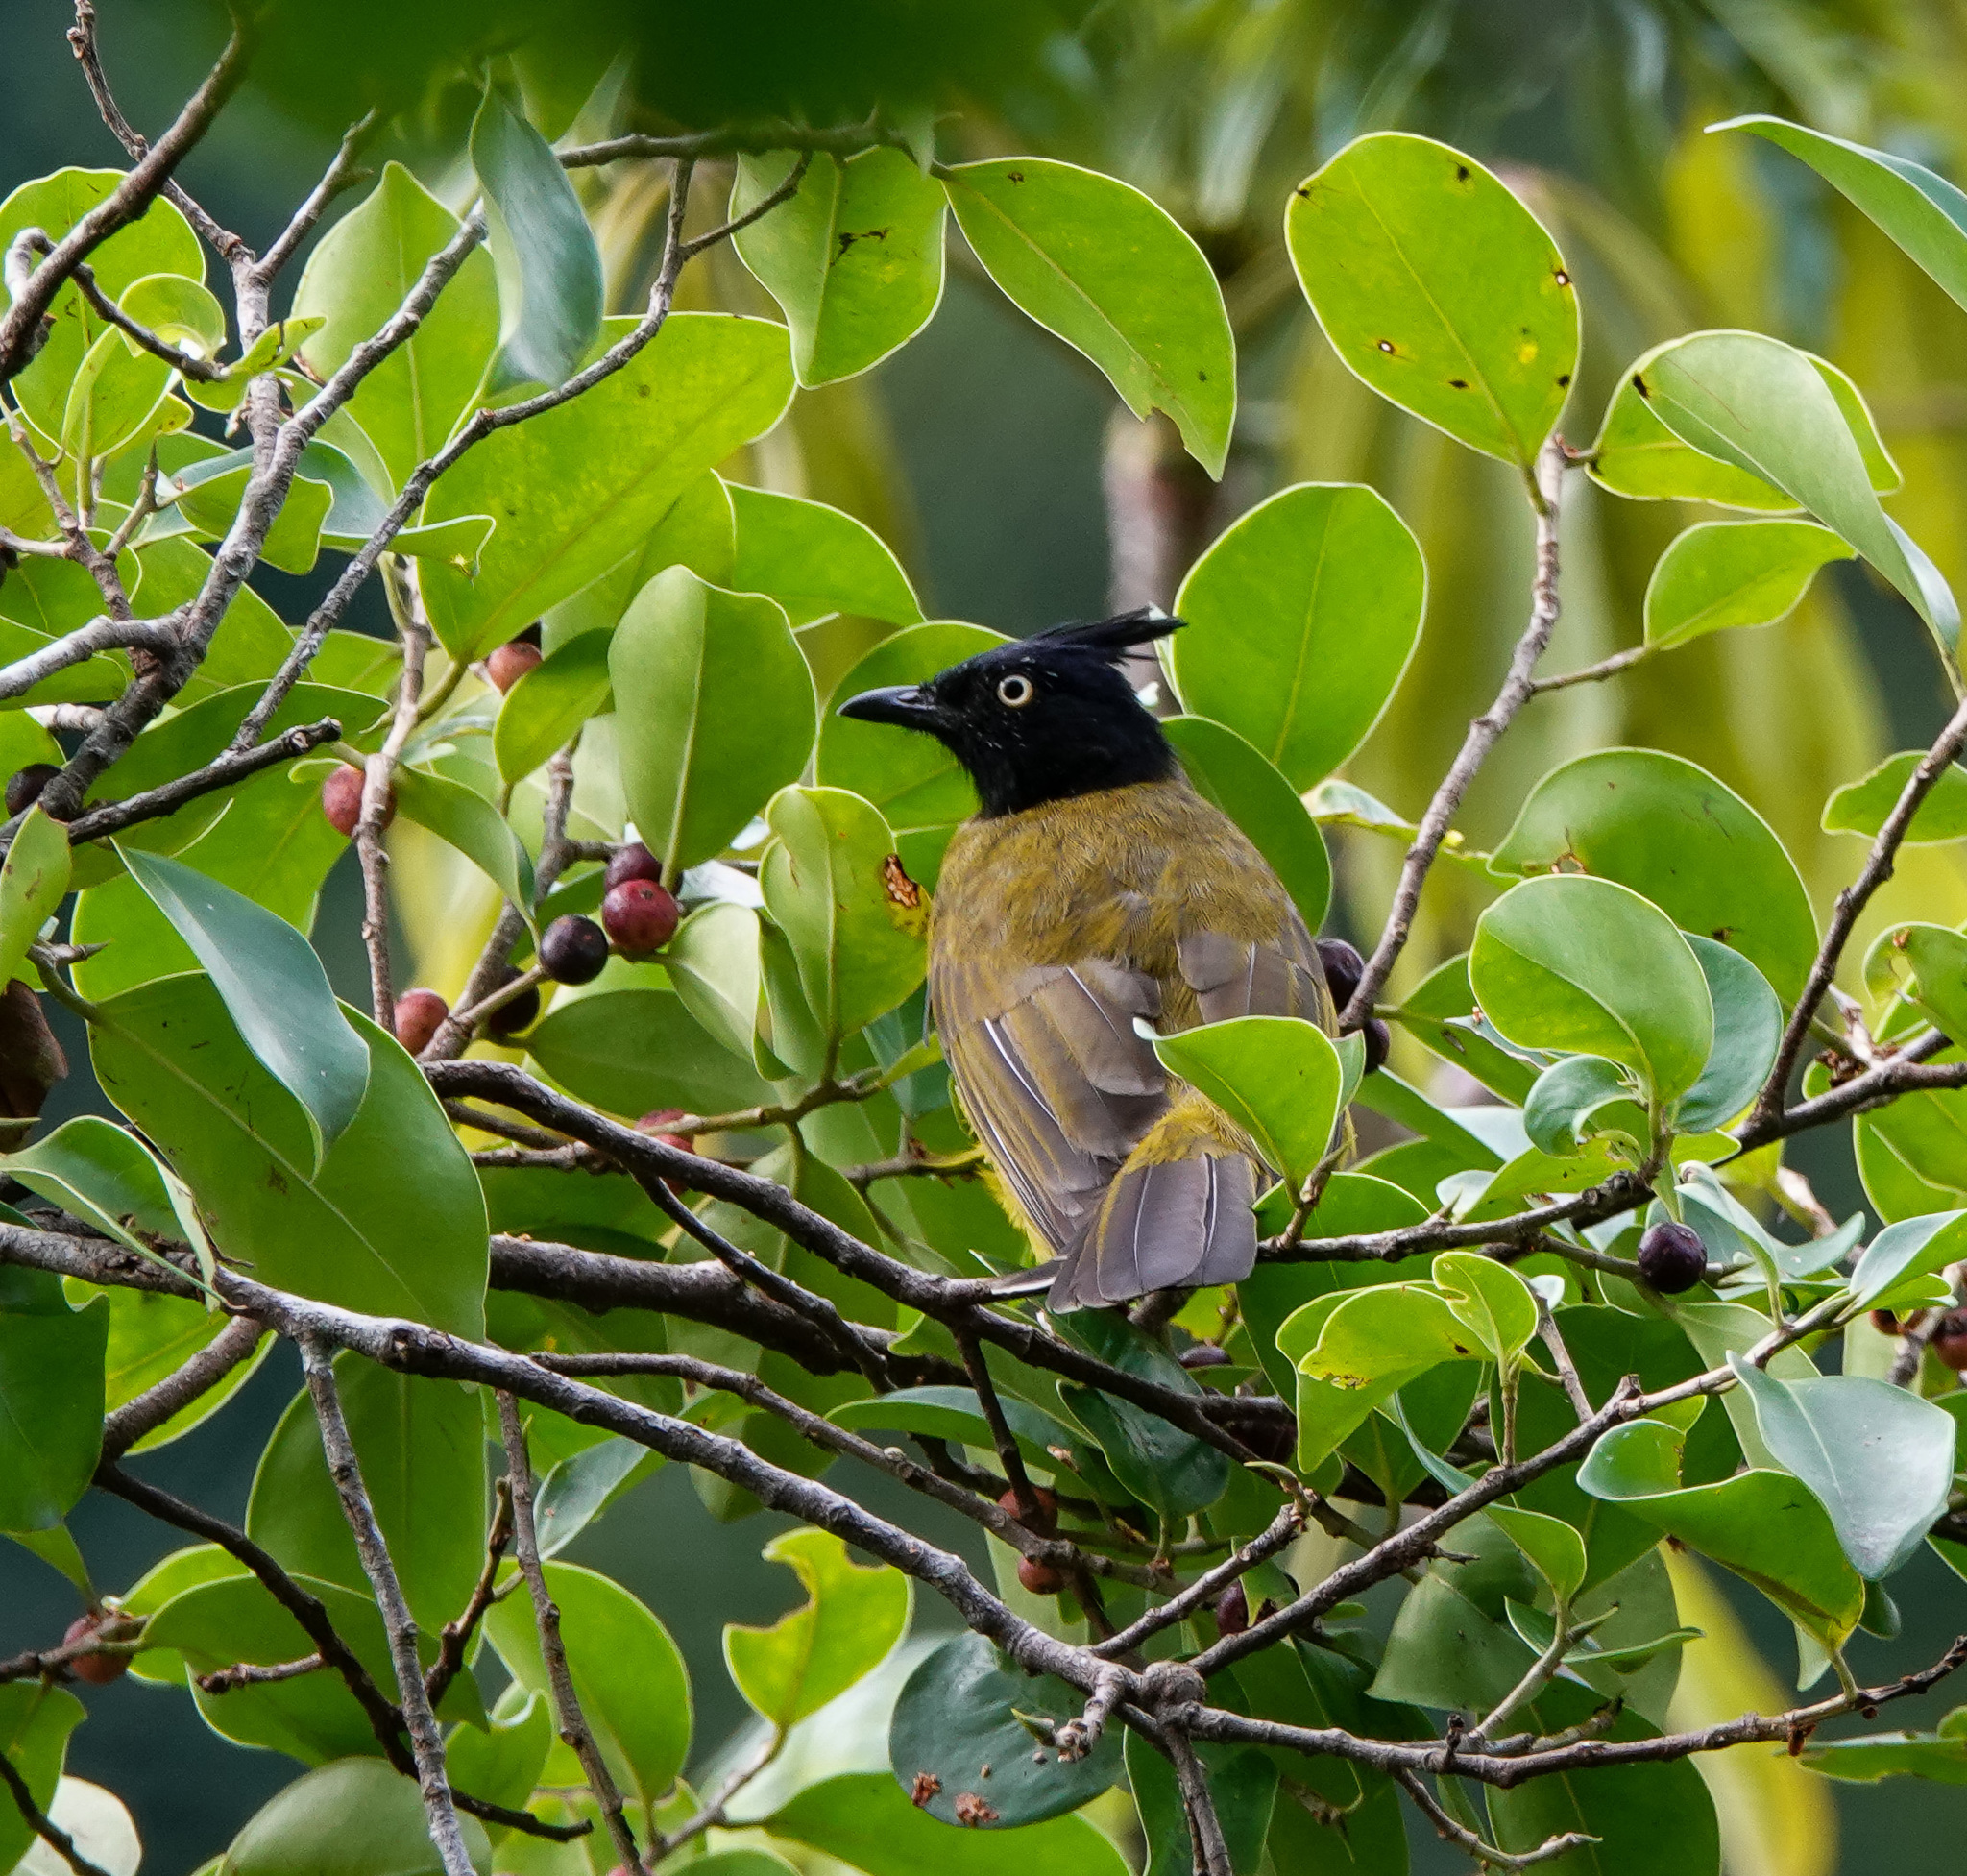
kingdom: Animalia
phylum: Chordata
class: Aves
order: Passeriformes
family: Pycnonotidae
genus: Pycnonotus
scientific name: Pycnonotus flaviventris
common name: Black-crested bulbul
